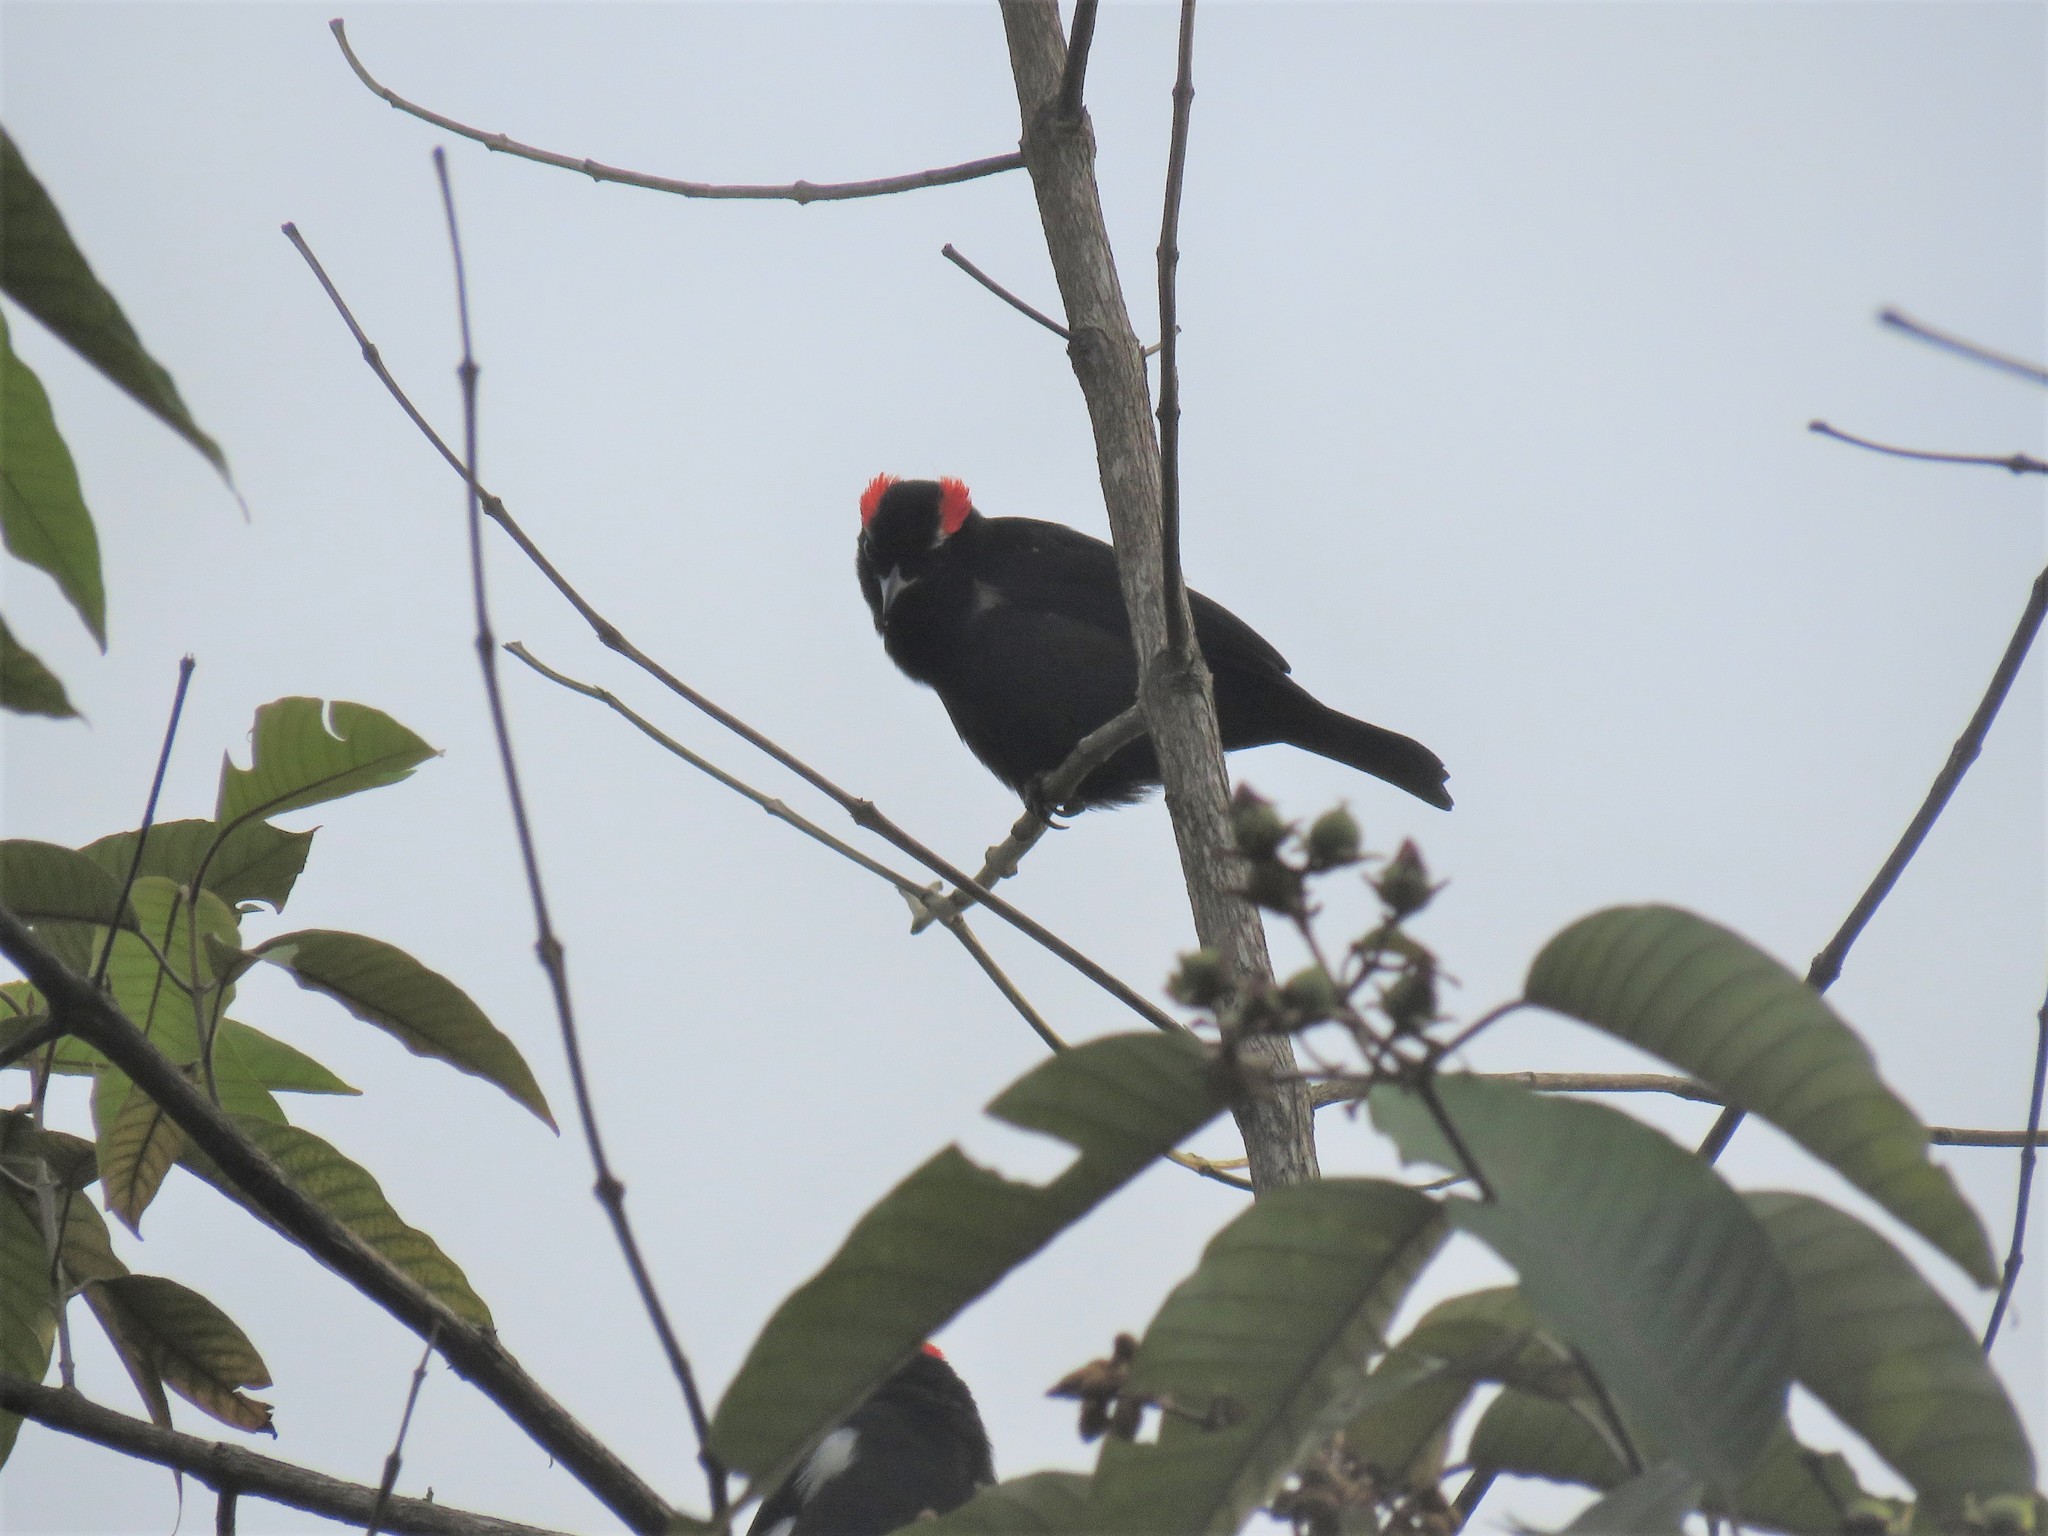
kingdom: Animalia
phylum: Chordata
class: Aves
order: Passeriformes
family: Thraupidae
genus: Heterospingus
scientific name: Heterospingus xanthopygius
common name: Scarlet-browed tanager
